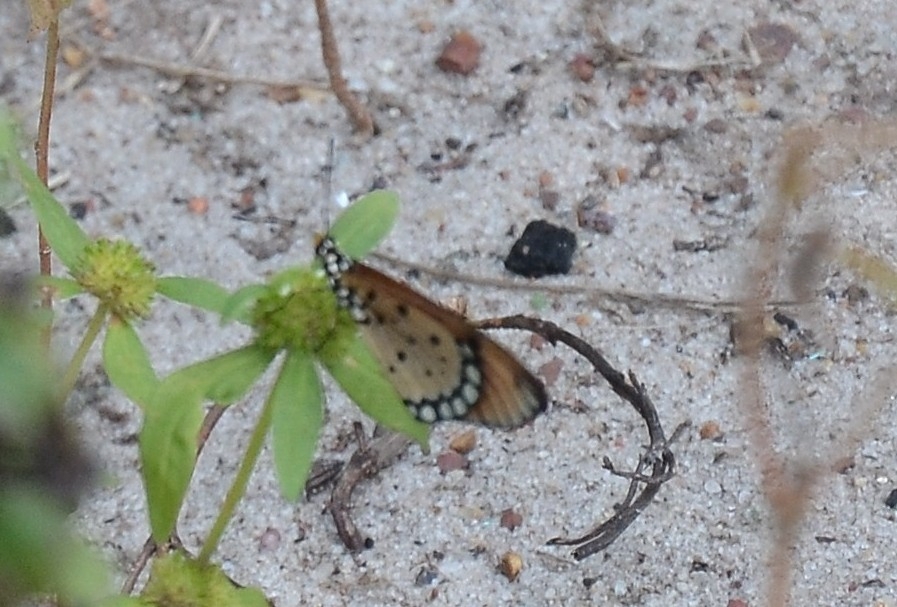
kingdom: Animalia
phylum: Arthropoda
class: Insecta
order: Lepidoptera
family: Nymphalidae
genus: Acraea
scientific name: Acraea terpsicore
